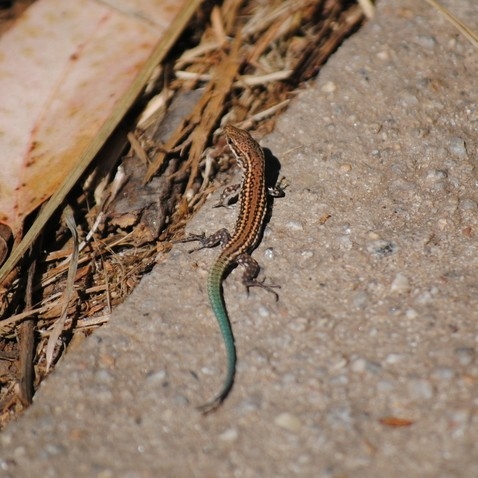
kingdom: Animalia
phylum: Chordata
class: Squamata
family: Lacertidae
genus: Podarcis
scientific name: Podarcis
